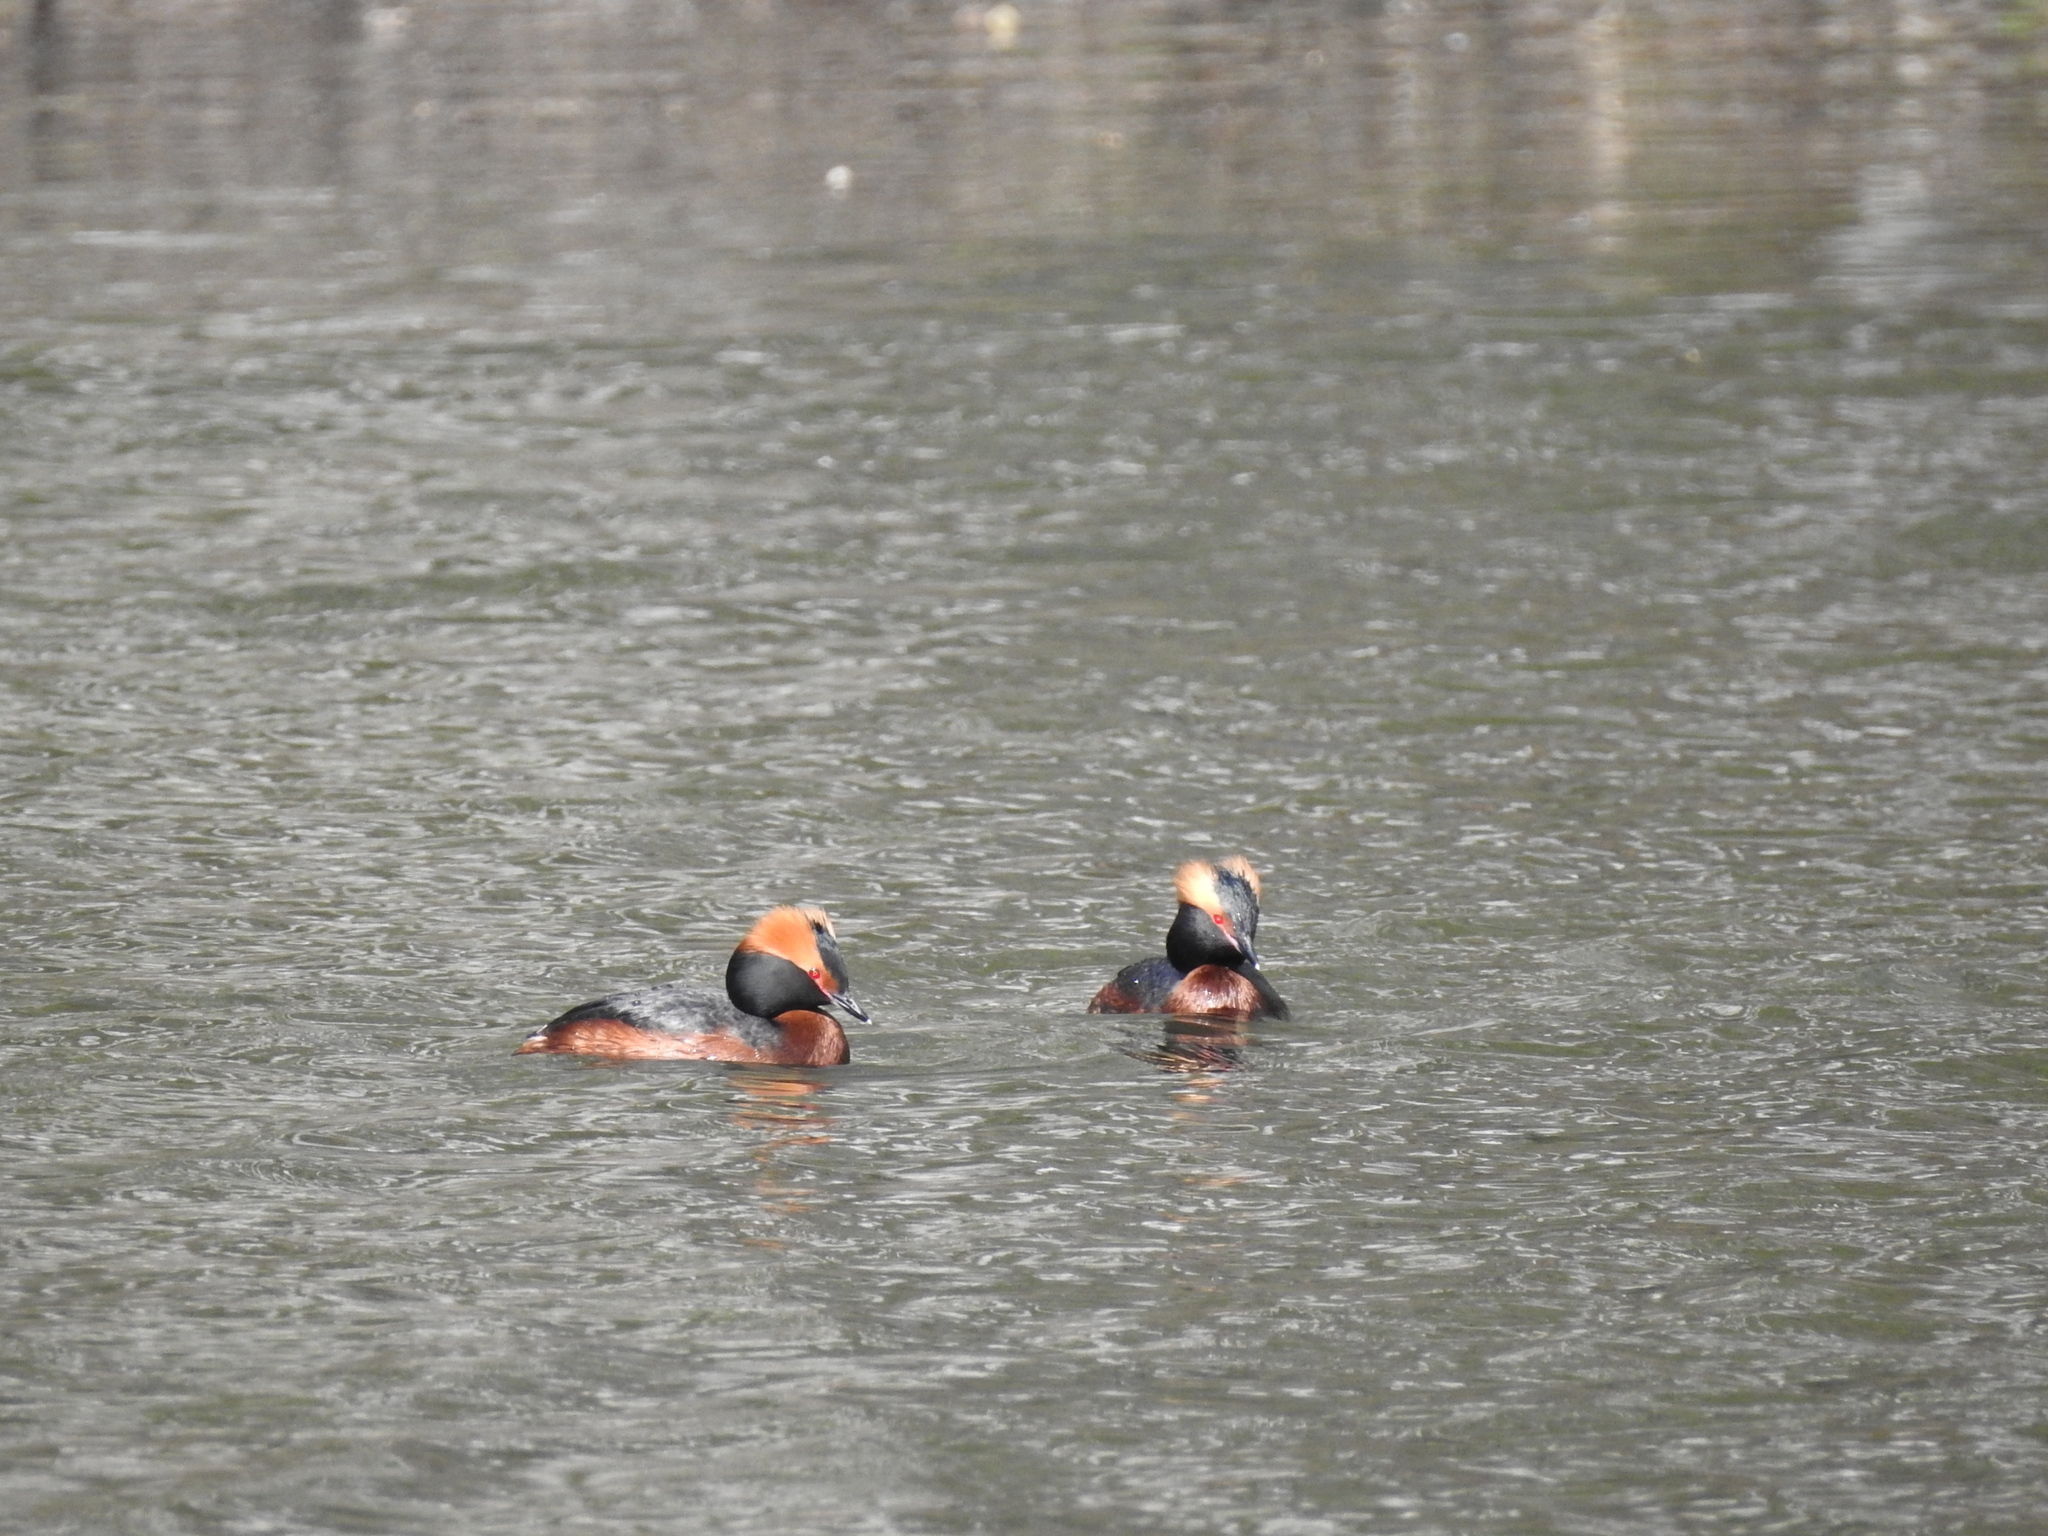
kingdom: Animalia
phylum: Chordata
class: Aves
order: Podicipediformes
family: Podicipedidae
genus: Podiceps
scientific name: Podiceps auritus
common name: Horned grebe
